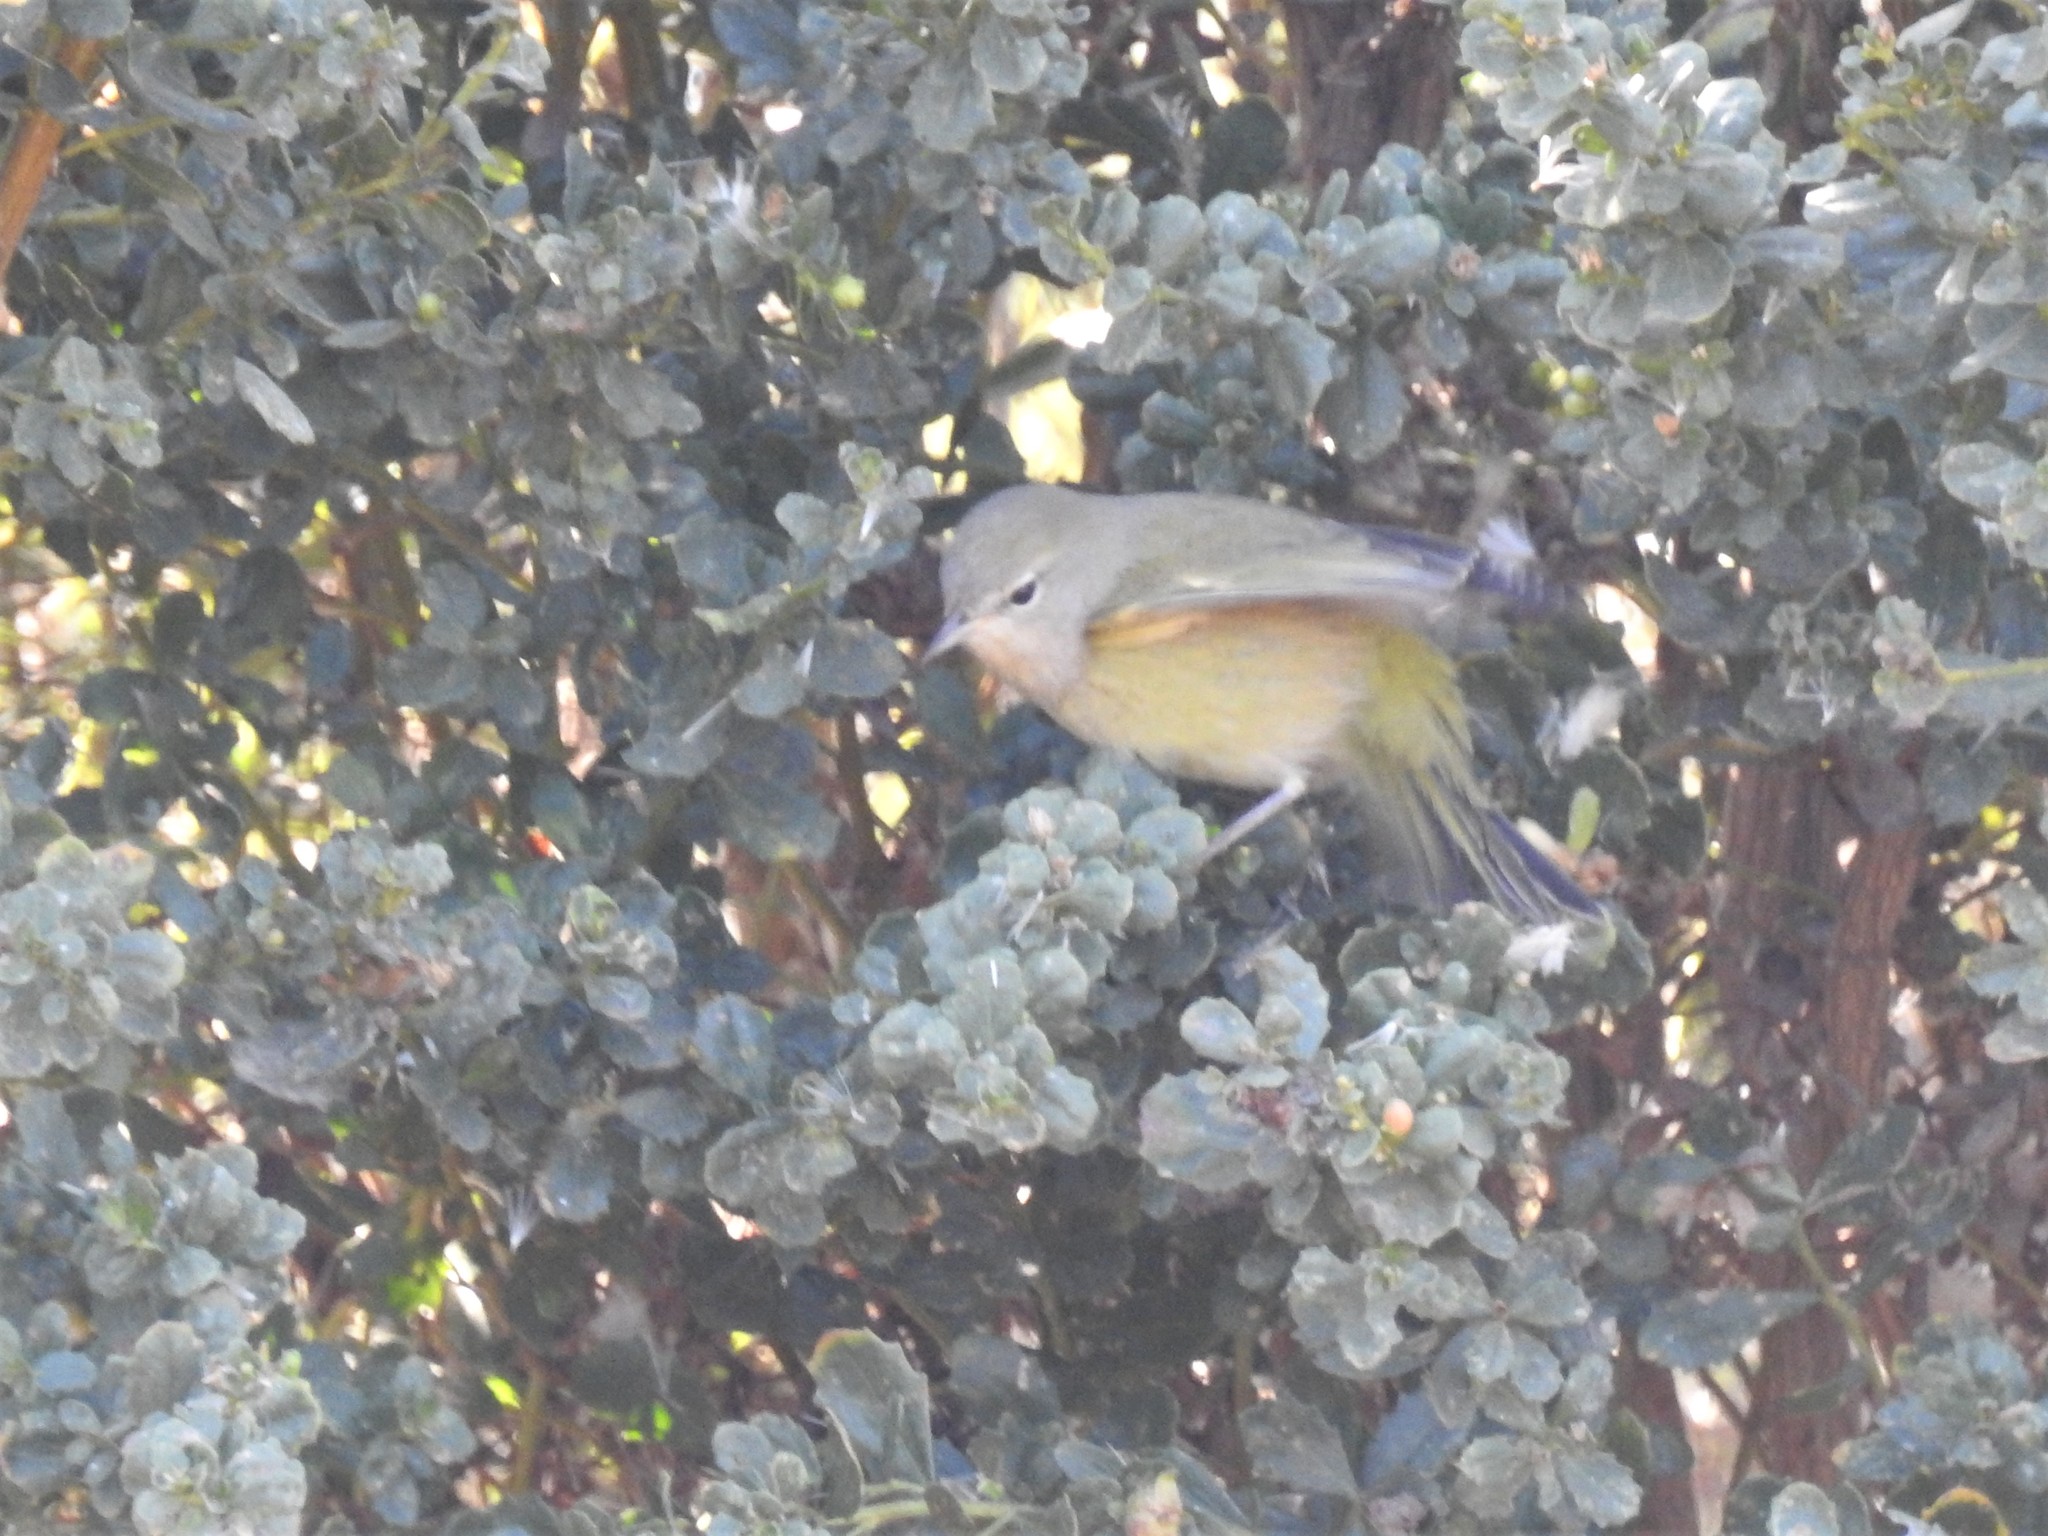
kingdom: Animalia
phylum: Chordata
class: Aves
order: Passeriformes
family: Parulidae
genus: Leiothlypis
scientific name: Leiothlypis celata
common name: Orange-crowned warbler
